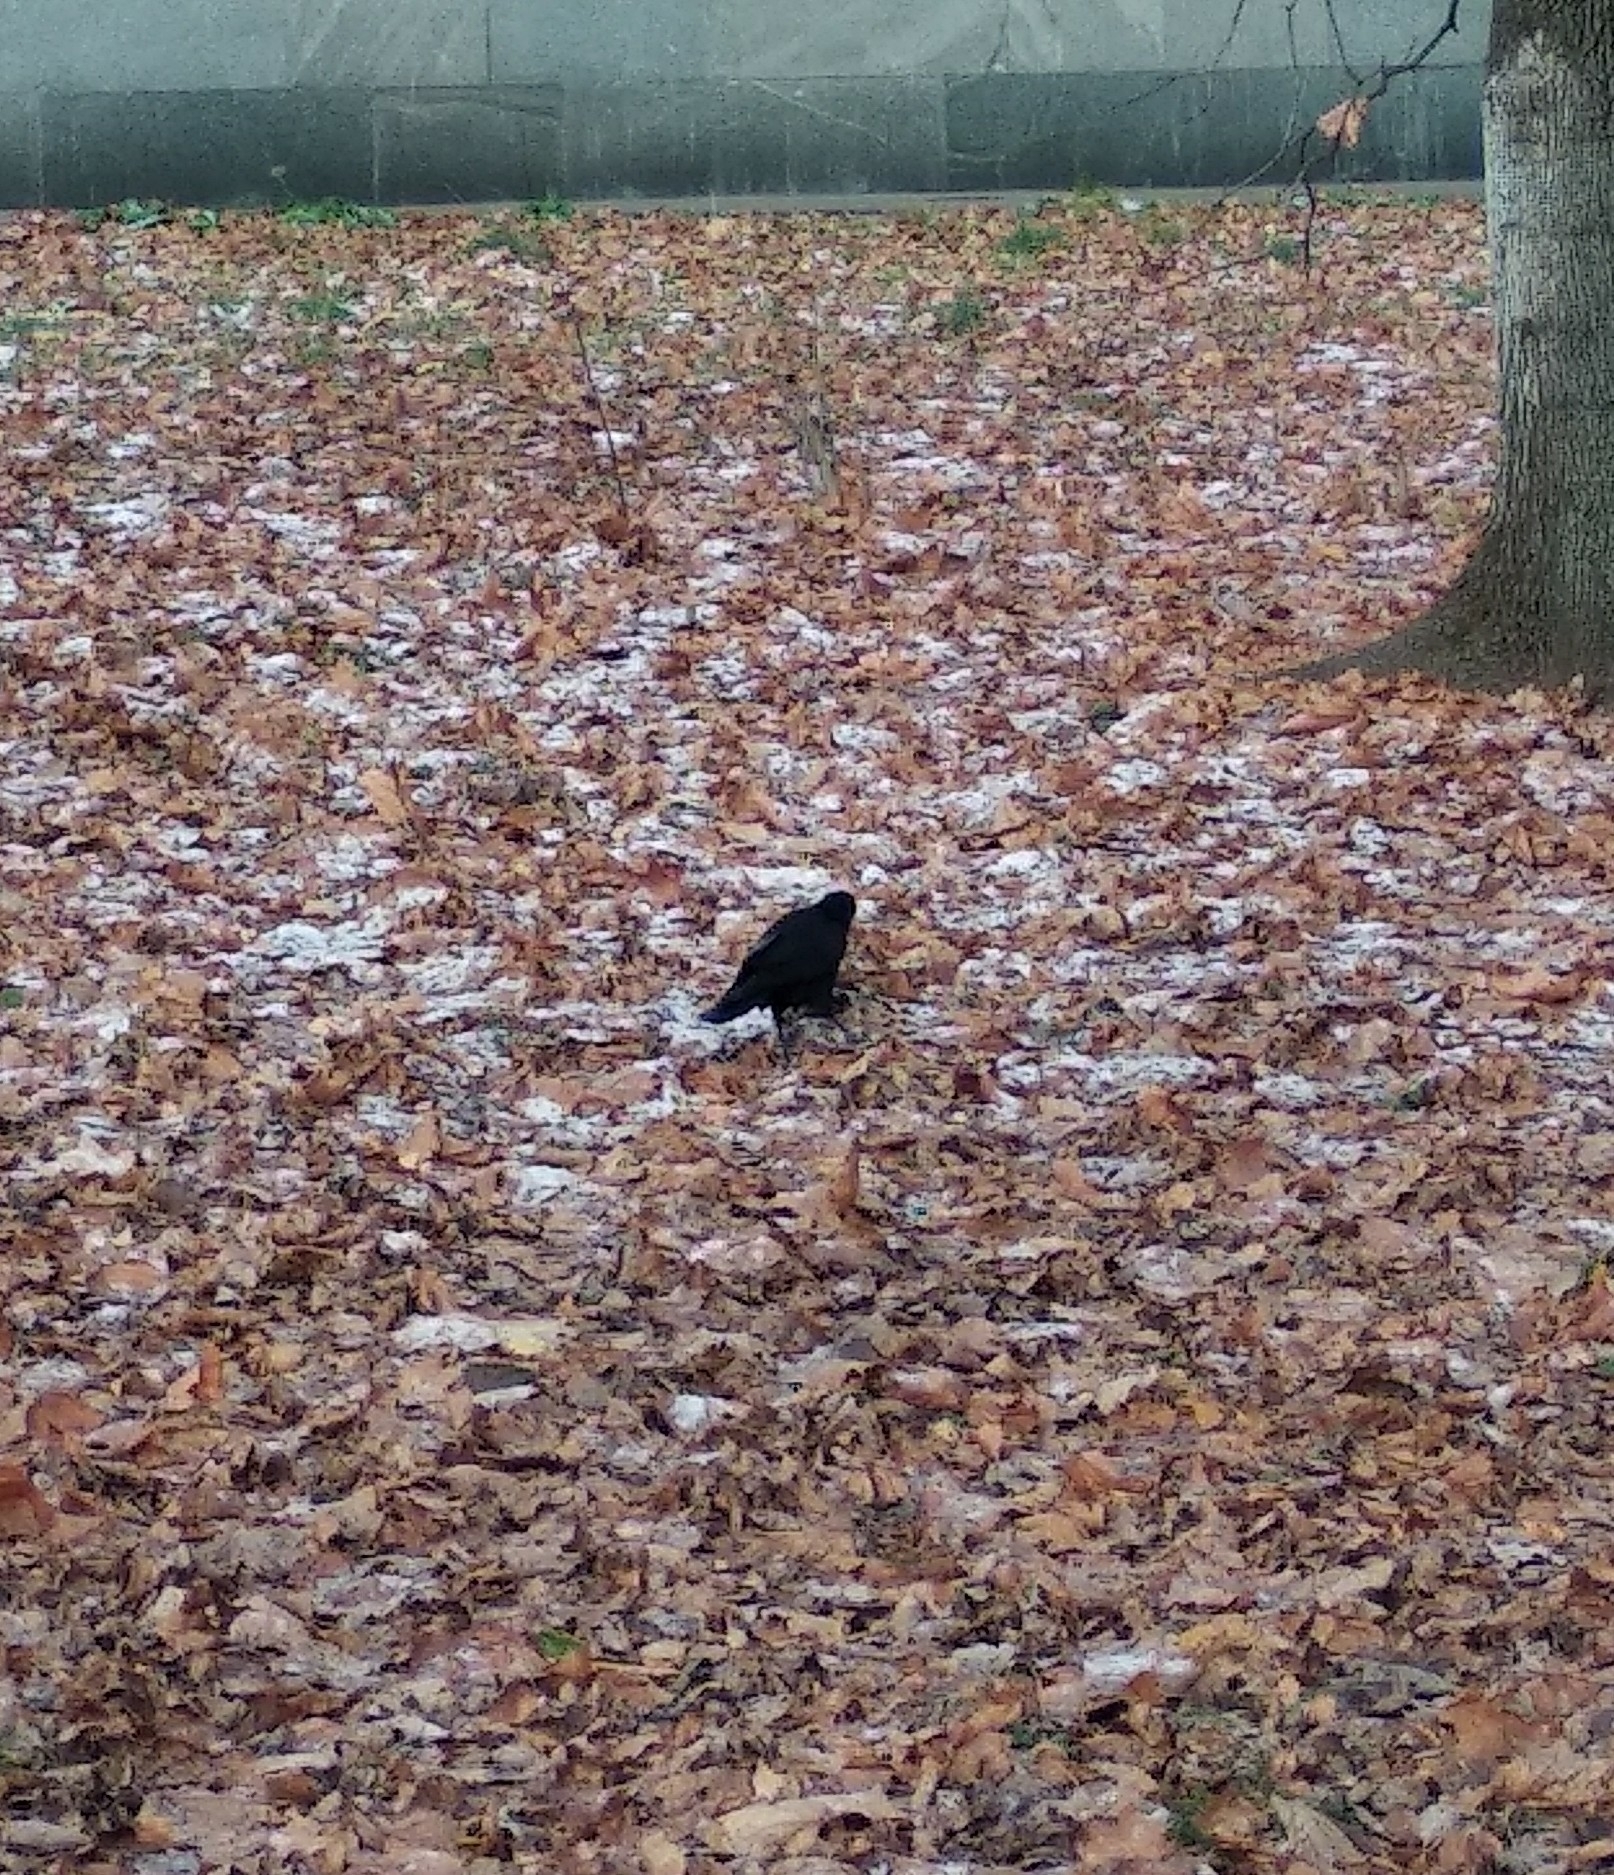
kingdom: Animalia
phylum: Chordata
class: Aves
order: Passeriformes
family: Corvidae
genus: Corvus
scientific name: Corvus frugilegus
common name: Rook
